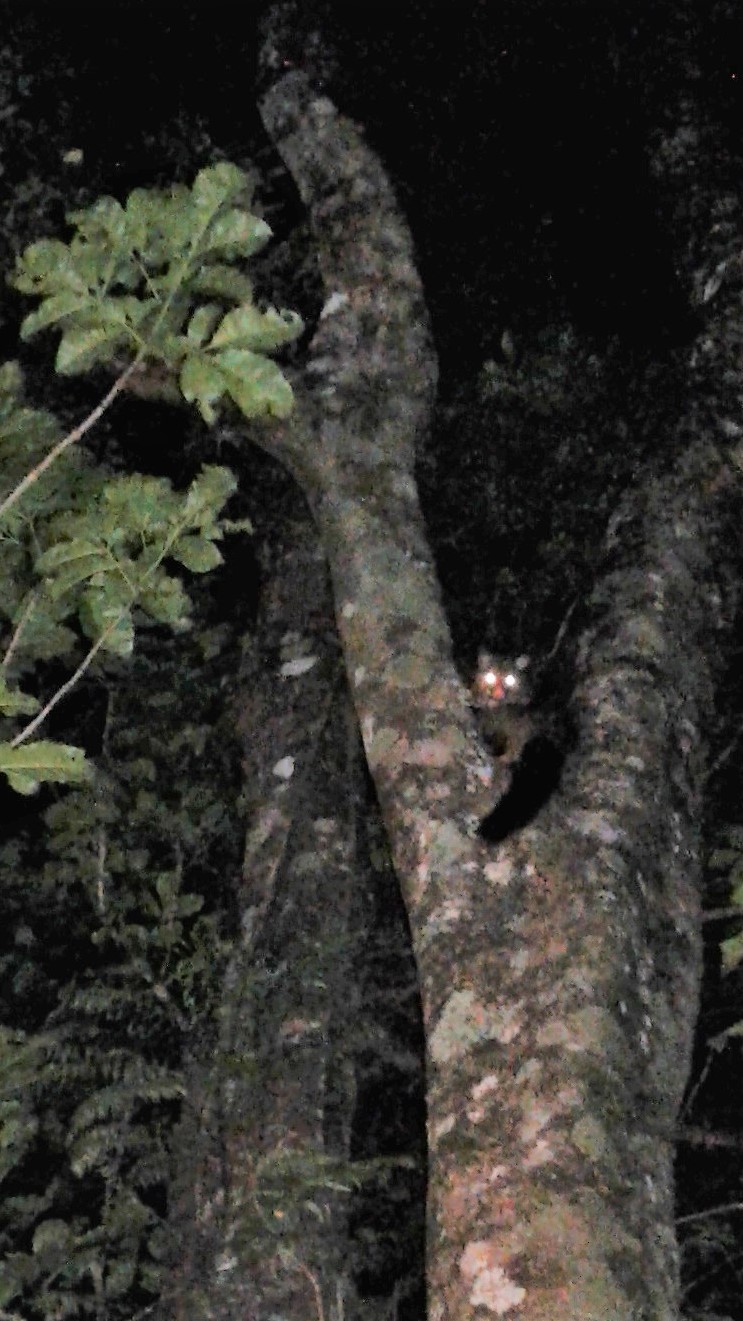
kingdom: Animalia
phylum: Chordata
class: Mammalia
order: Diprotodontia
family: Phalangeridae
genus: Trichosurus
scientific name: Trichosurus vulpecula
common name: Common brushtail
